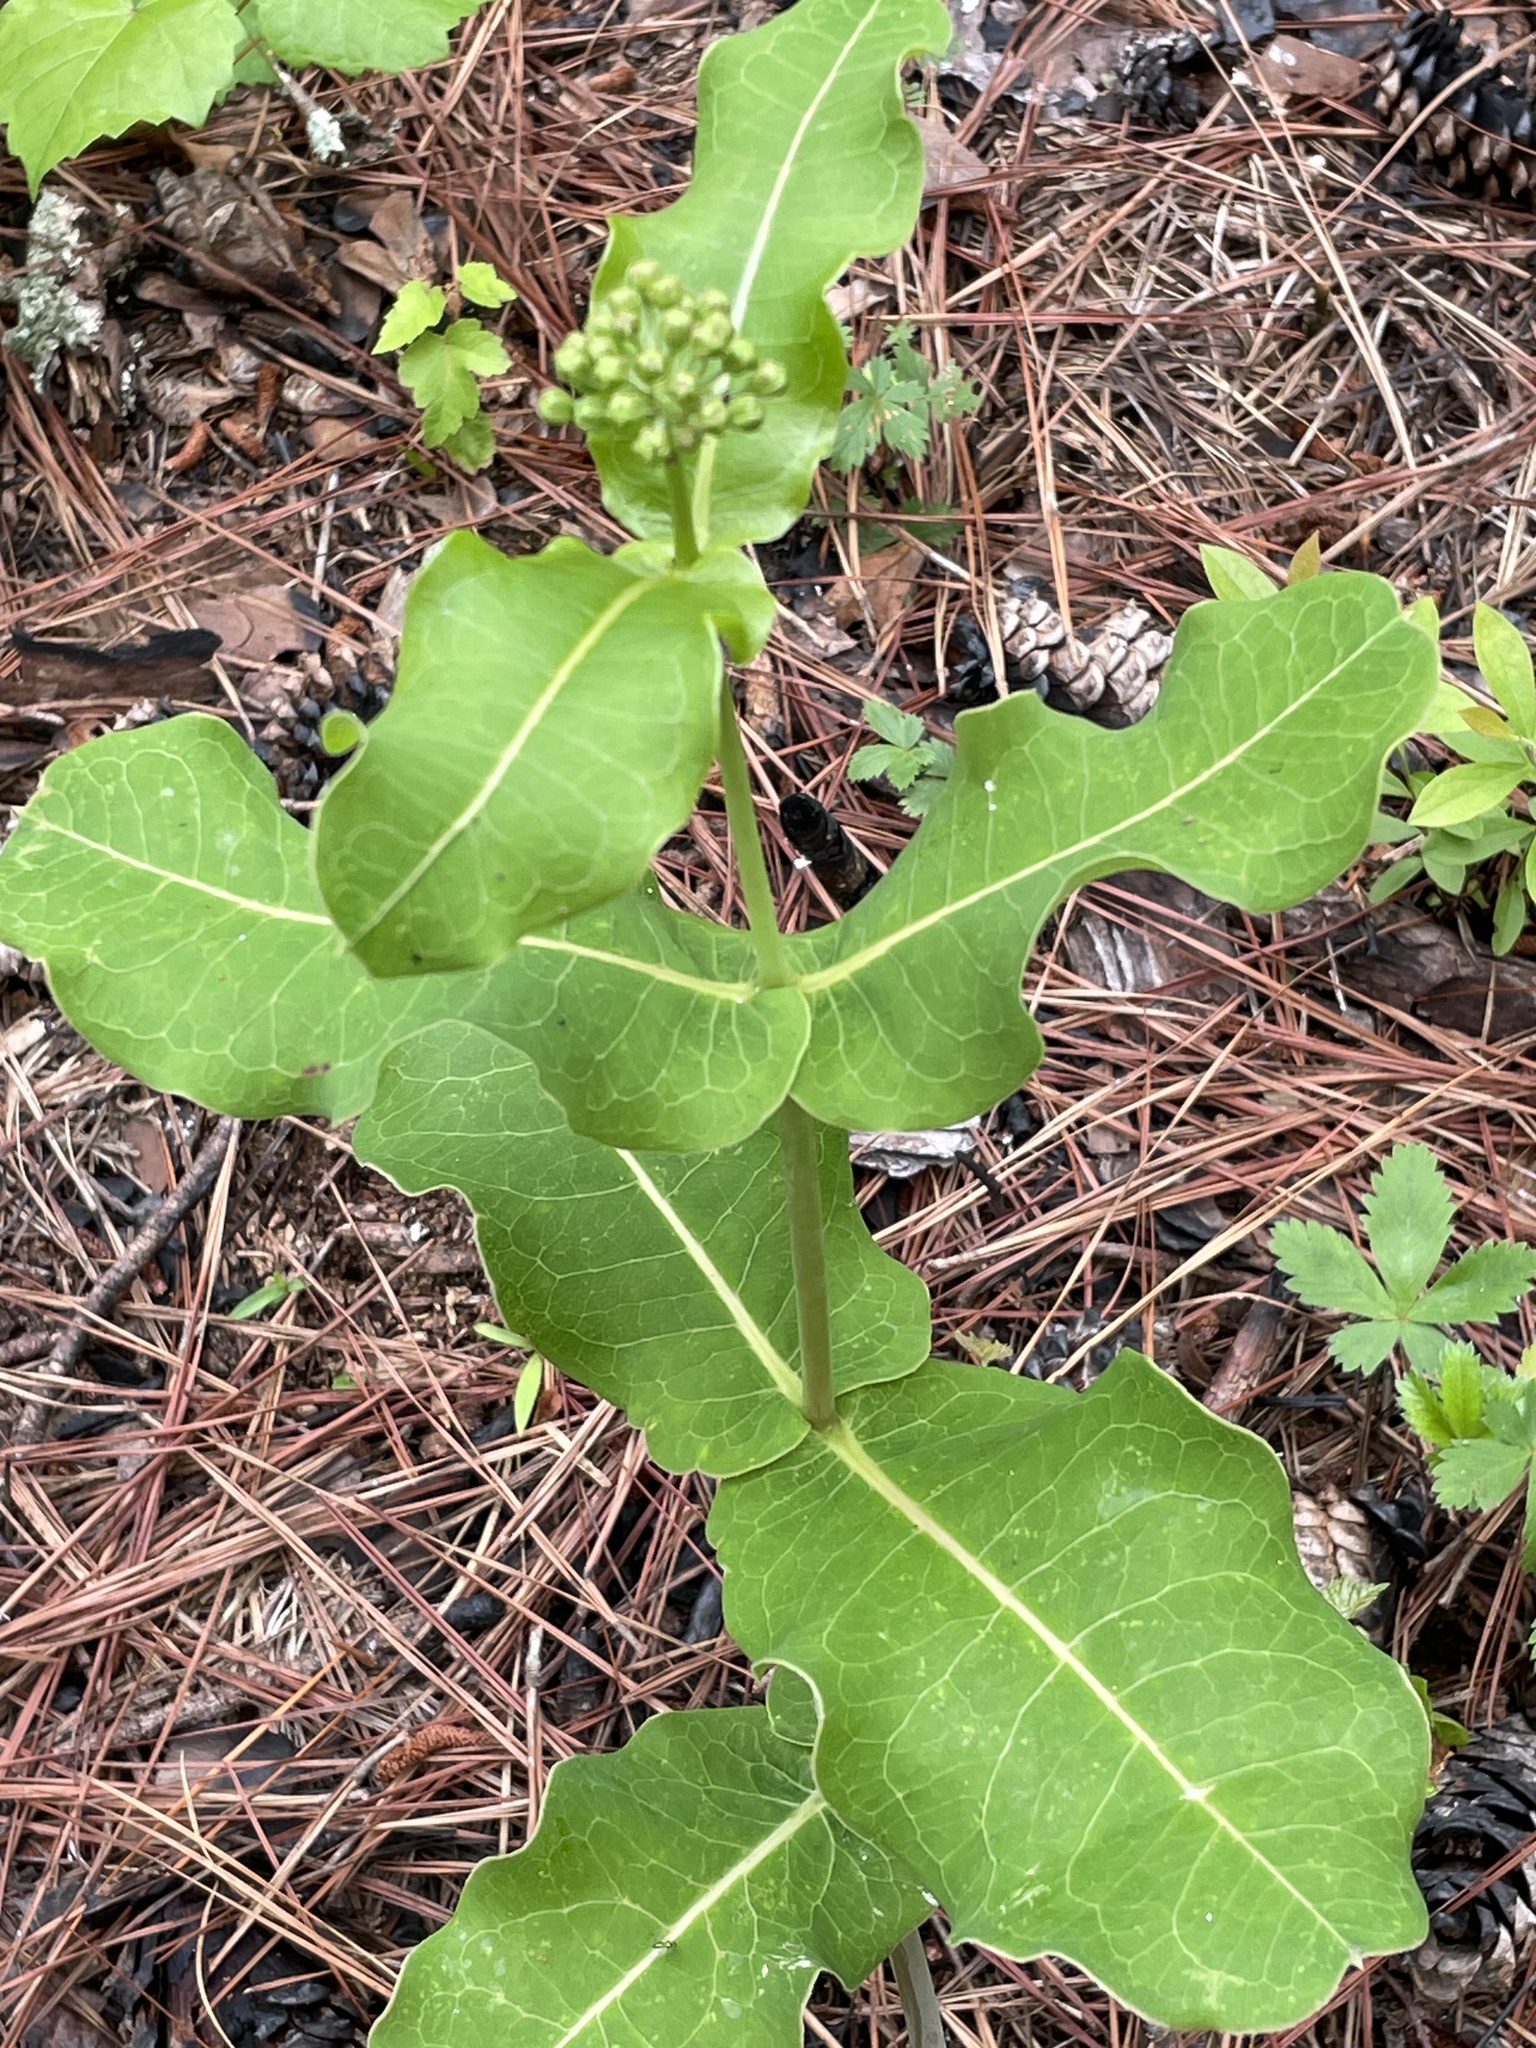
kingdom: Plantae
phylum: Tracheophyta
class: Magnoliopsida
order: Gentianales
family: Apocynaceae
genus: Asclepias
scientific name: Asclepias amplexicaulis
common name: Blunt-leaf milkweed
